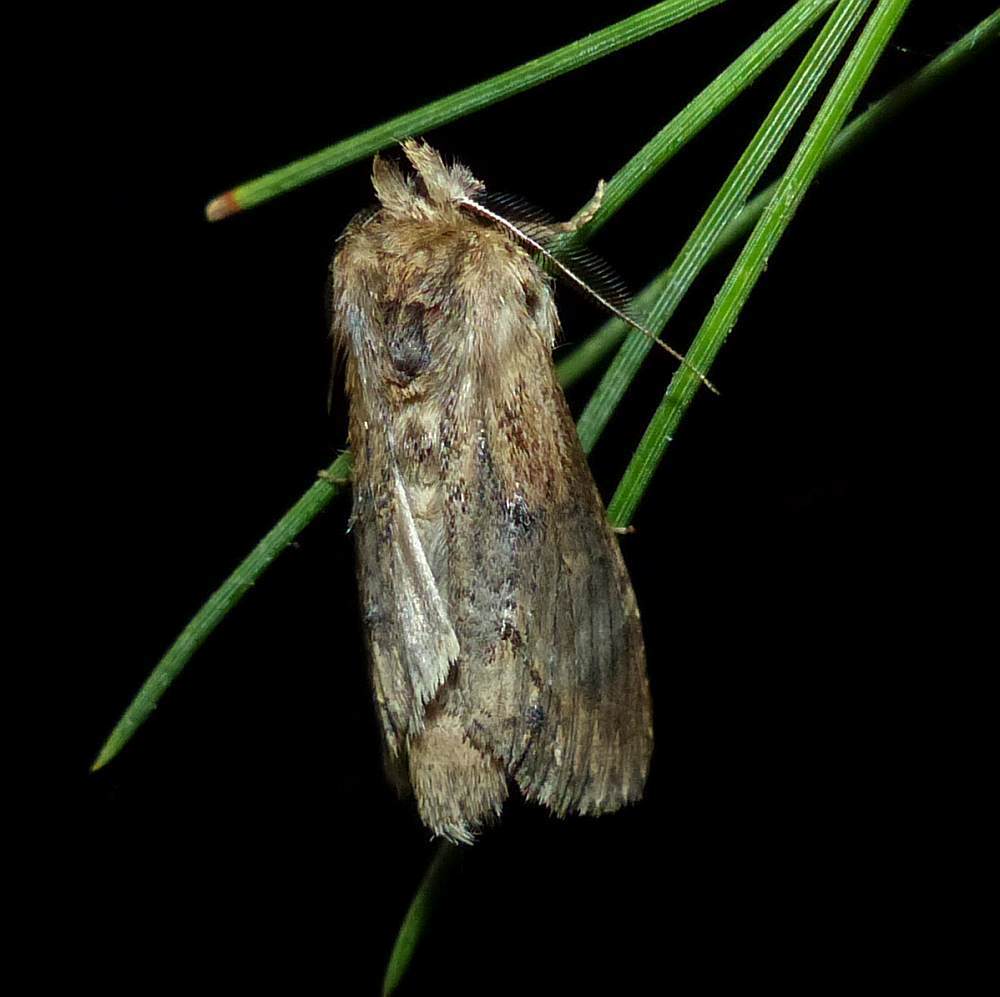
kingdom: Animalia
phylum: Arthropoda
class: Insecta
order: Lepidoptera
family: Notodontidae
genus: Dasylophia
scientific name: Dasylophia thyatiroides
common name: Gray-patched prominent
